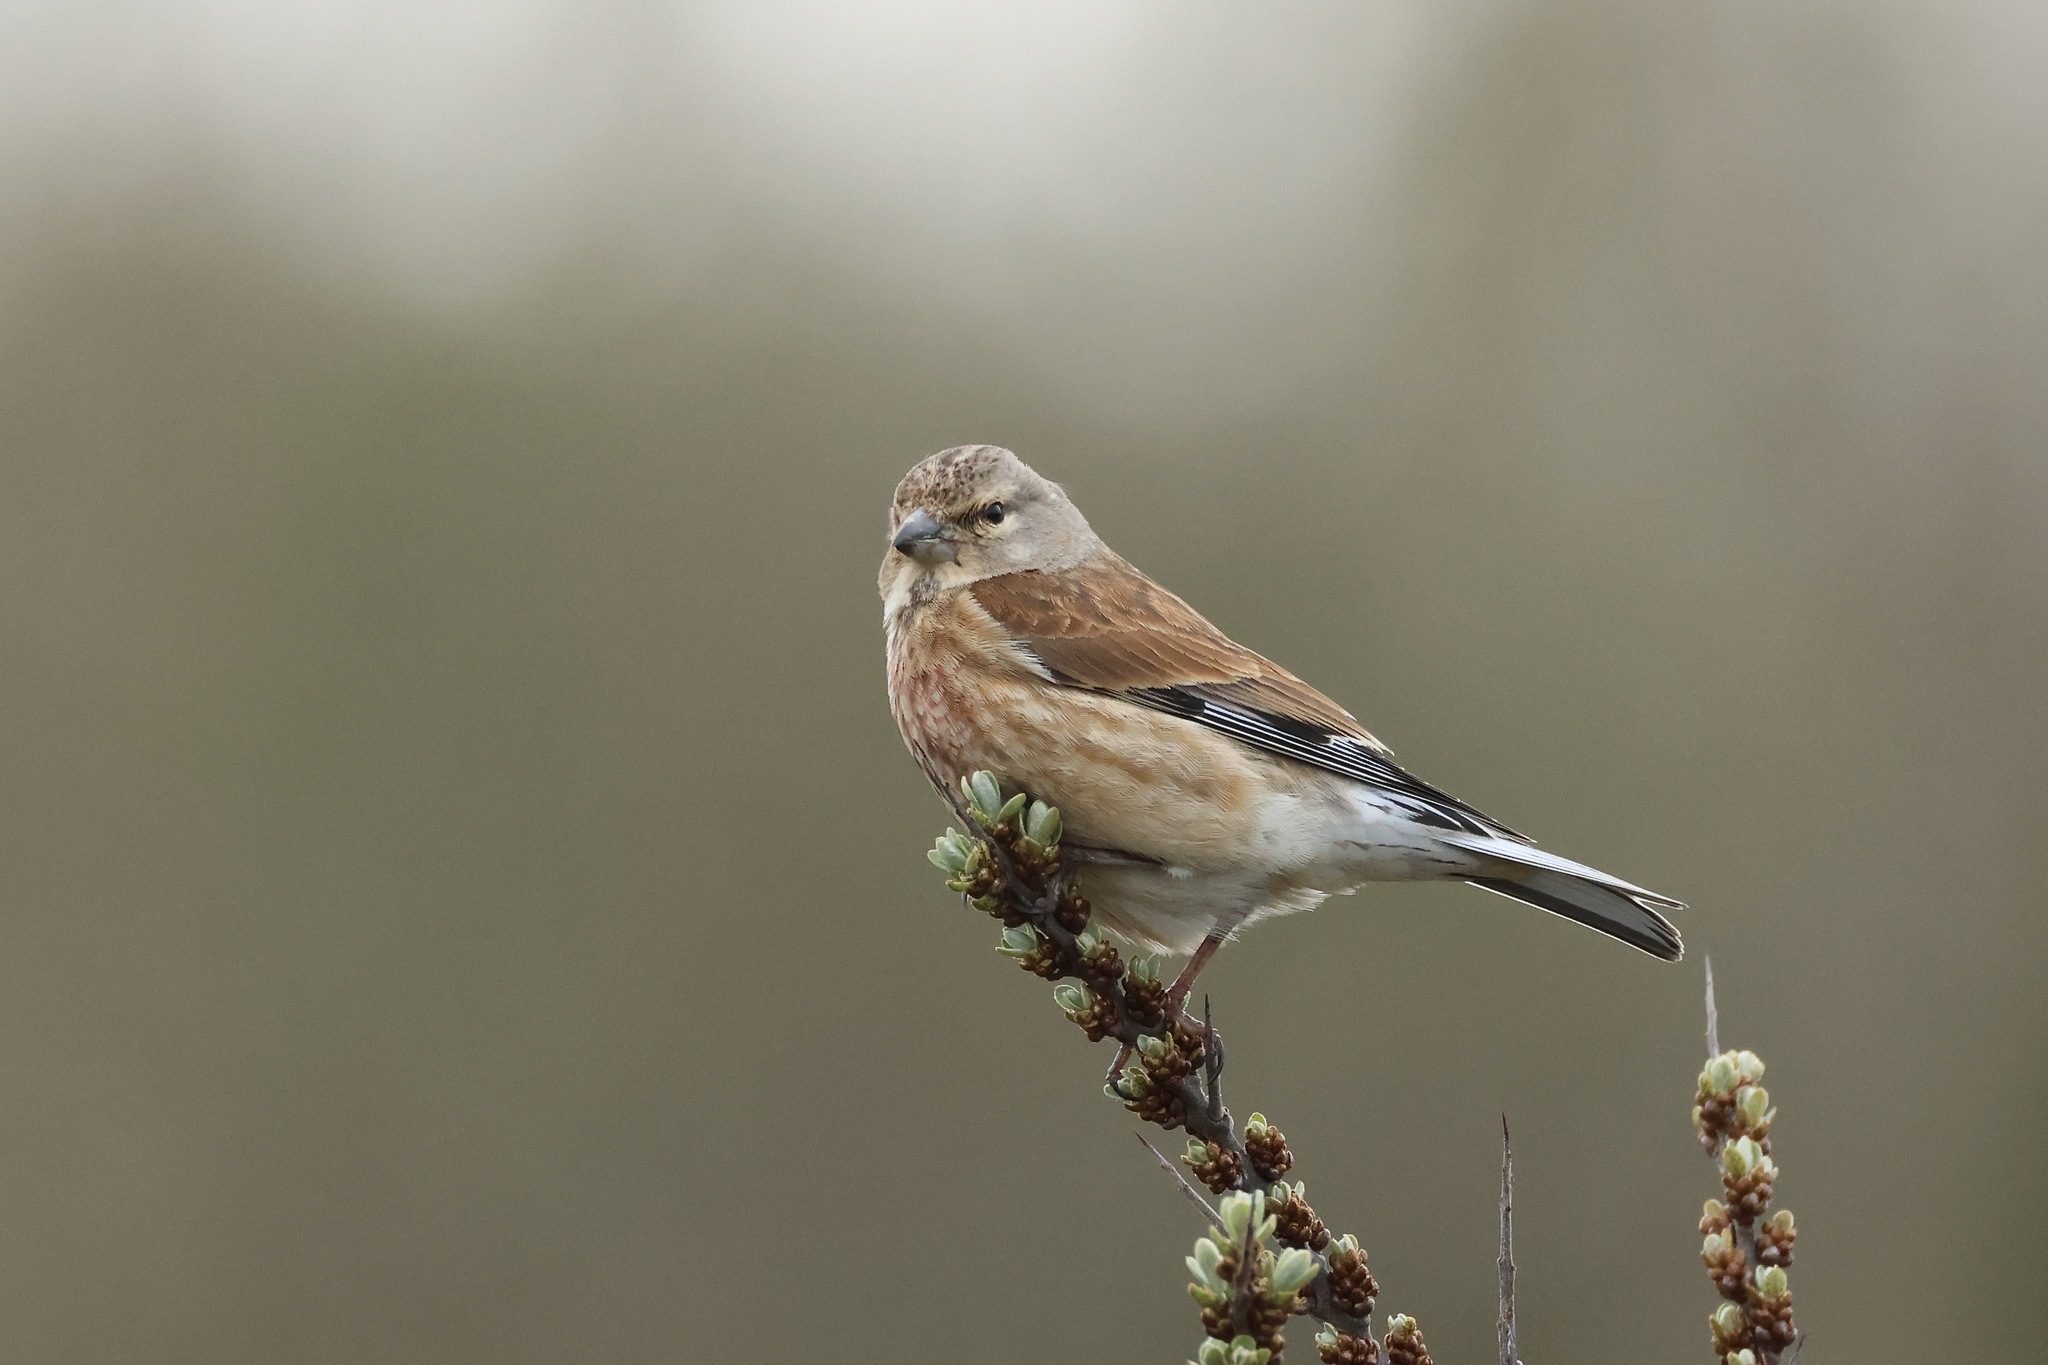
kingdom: Animalia
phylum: Chordata
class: Aves
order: Passeriformes
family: Fringillidae
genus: Linaria
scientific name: Linaria cannabina
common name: Common linnet
